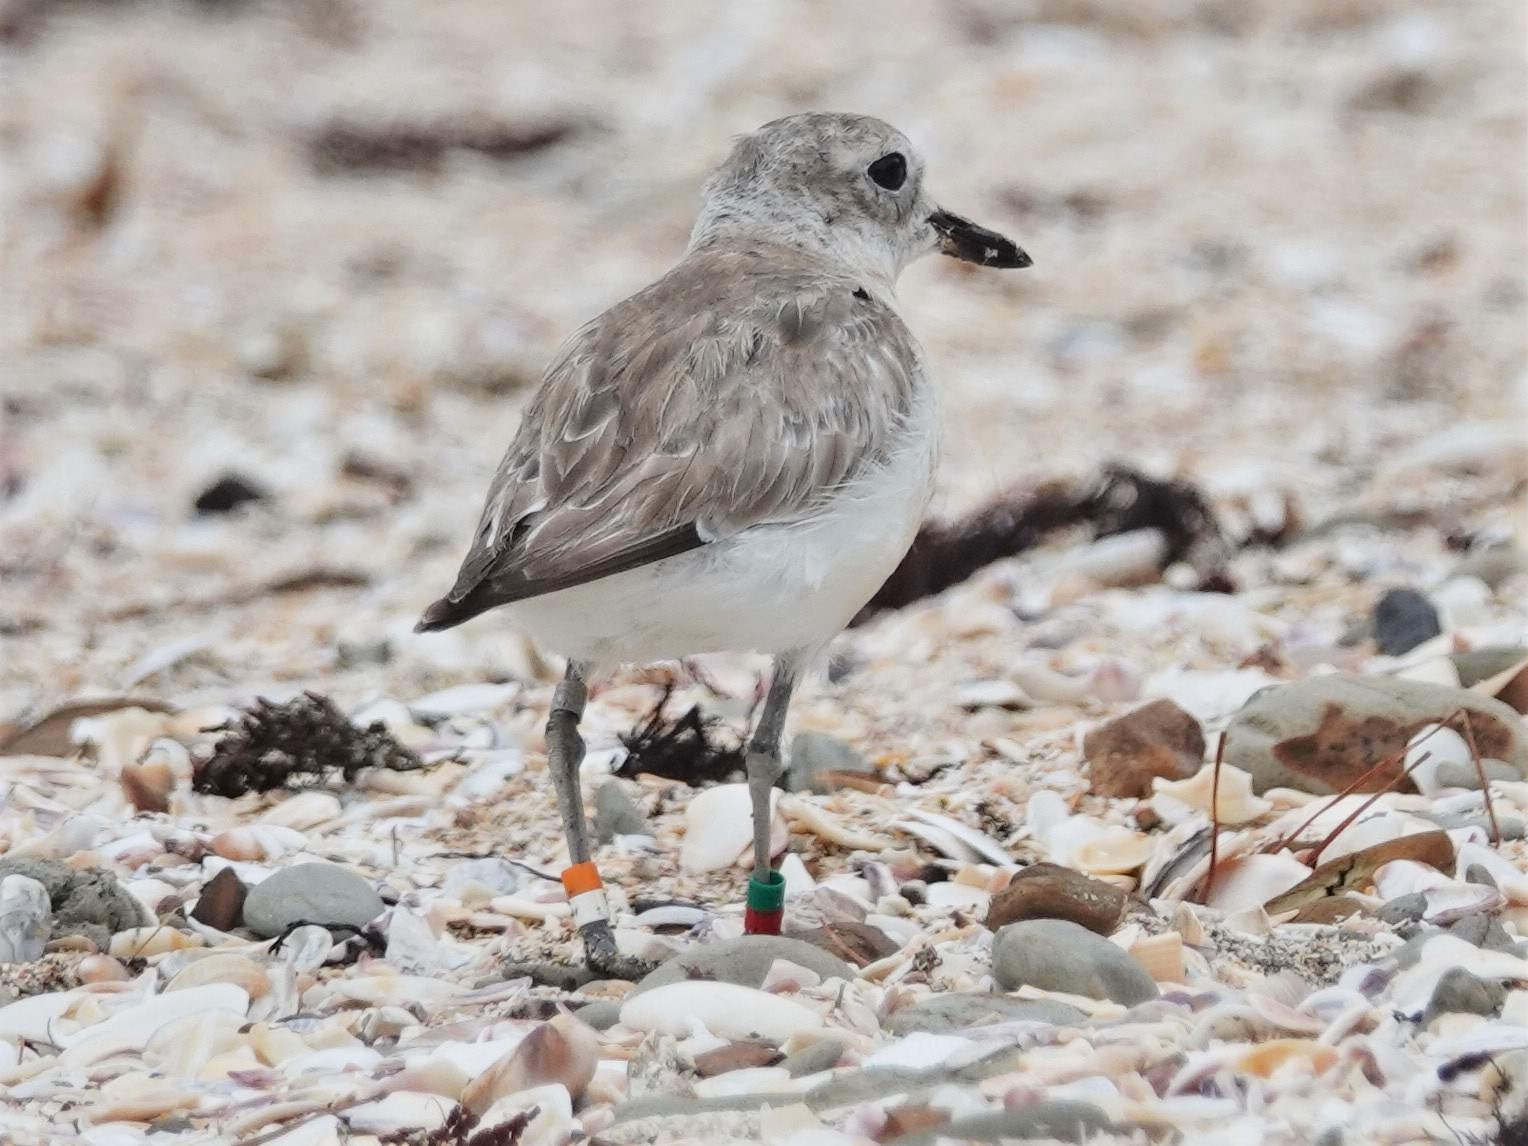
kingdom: Animalia
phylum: Chordata
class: Aves
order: Charadriiformes
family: Charadriidae
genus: Anarhynchus
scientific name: Anarhynchus
